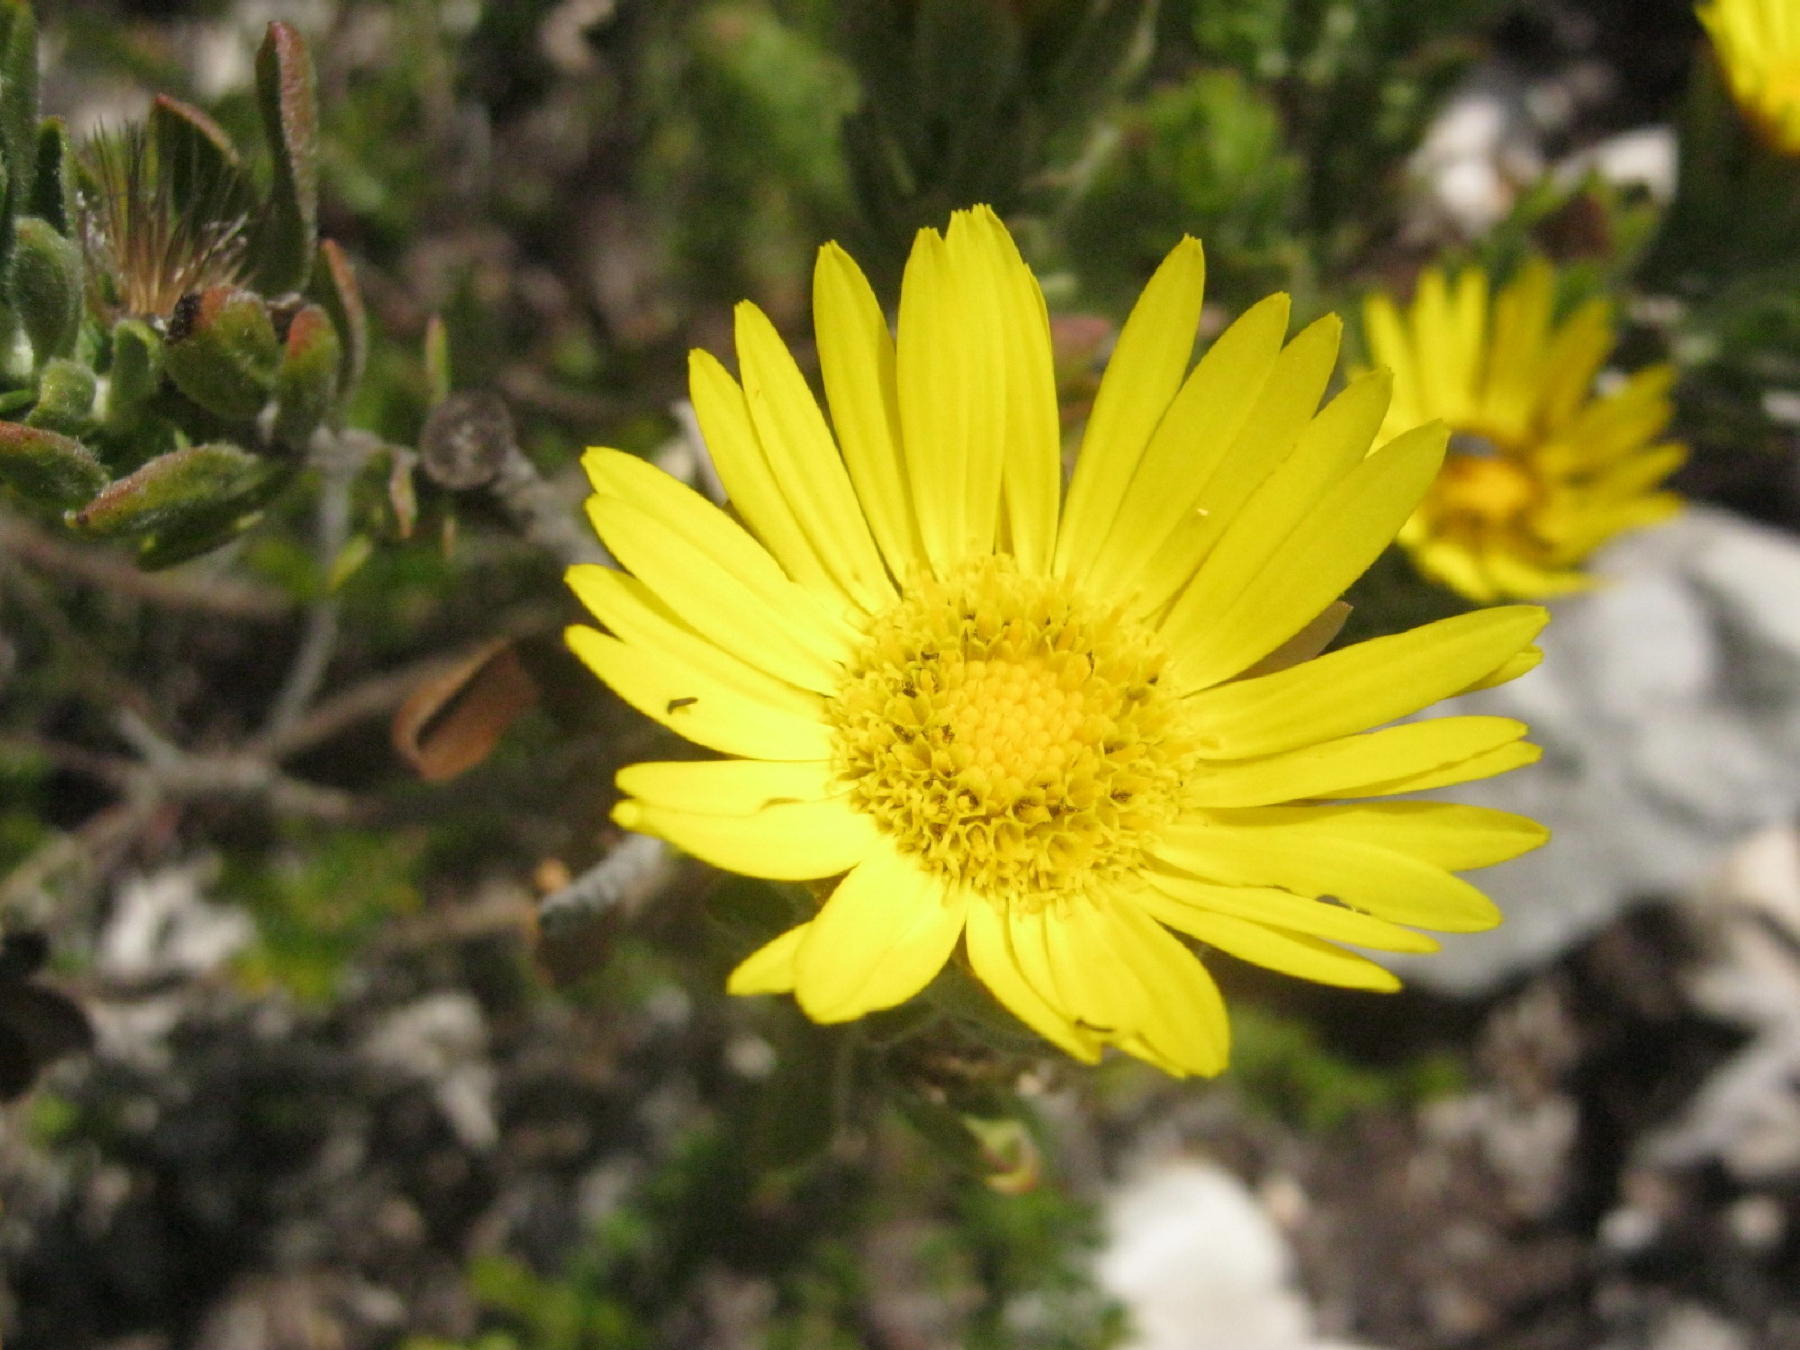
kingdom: Plantae
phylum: Tracheophyta
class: Magnoliopsida
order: Asterales
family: Asteraceae
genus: Oedera
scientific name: Oedera calycina
